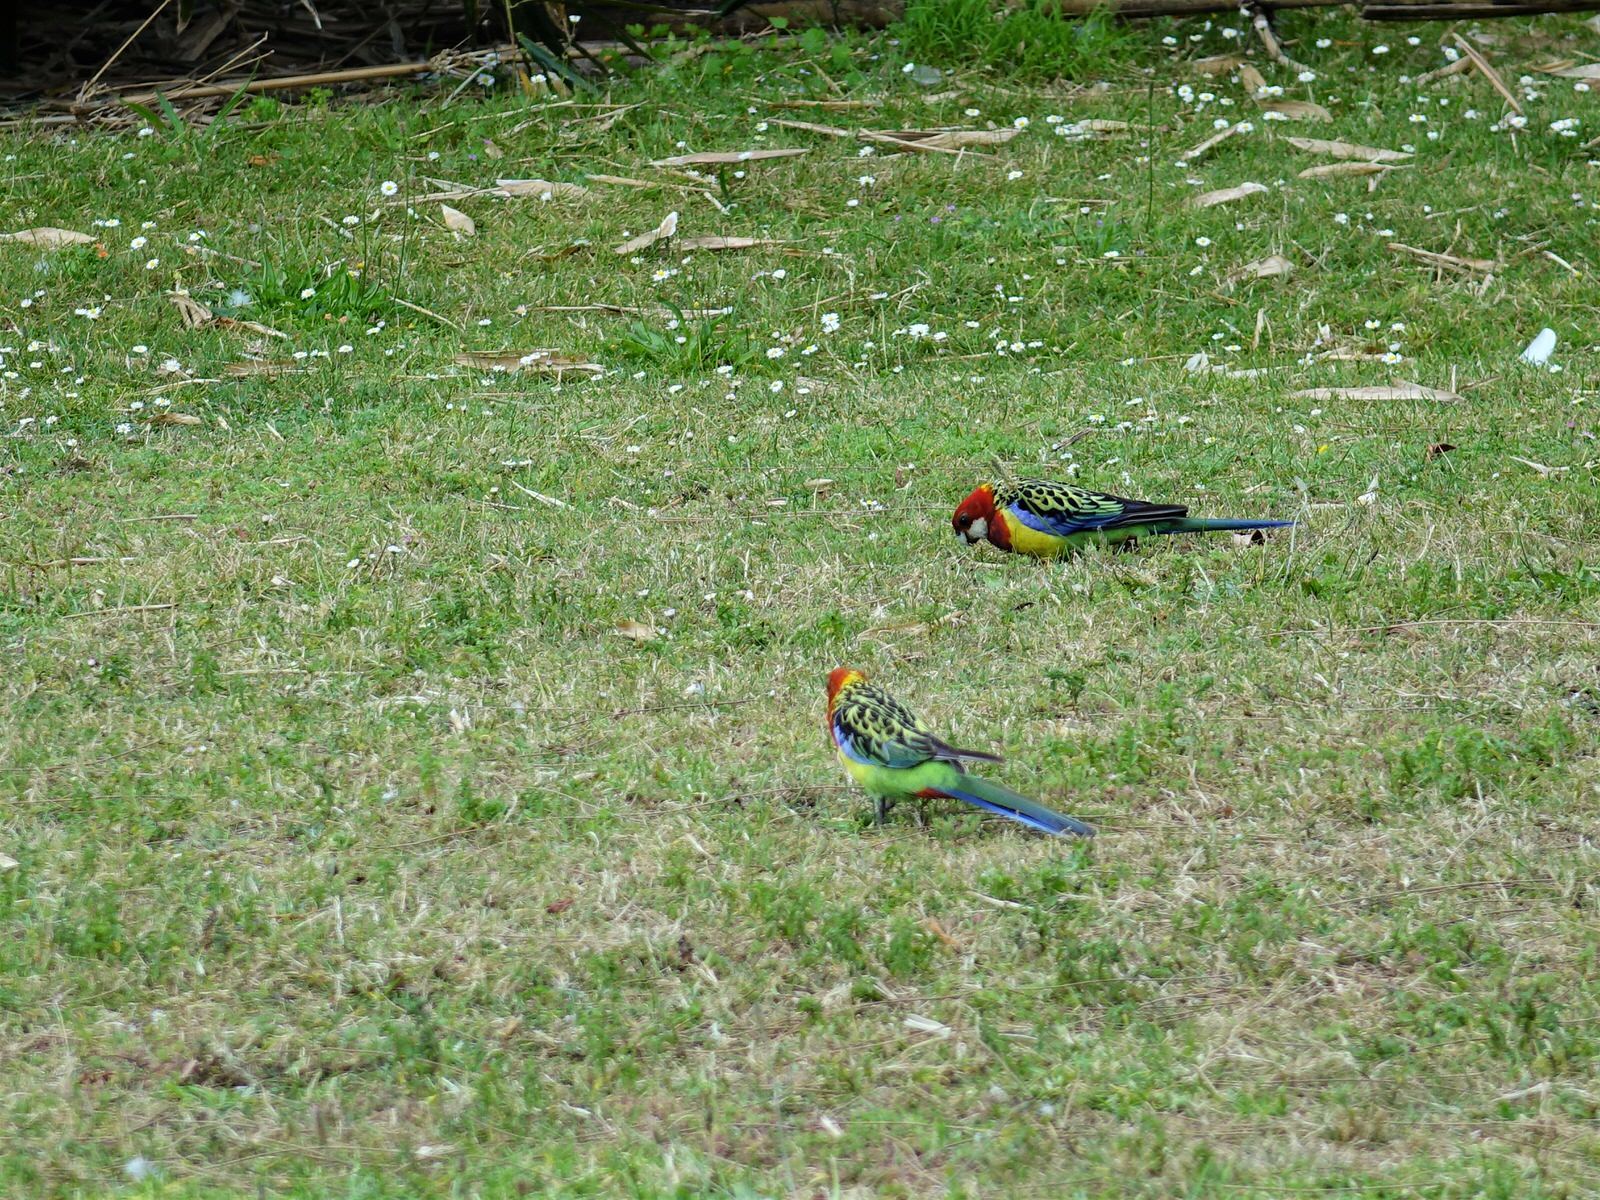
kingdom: Animalia
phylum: Chordata
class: Aves
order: Psittaciformes
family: Psittacidae
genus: Platycercus
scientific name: Platycercus eximius
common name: Eastern rosella
